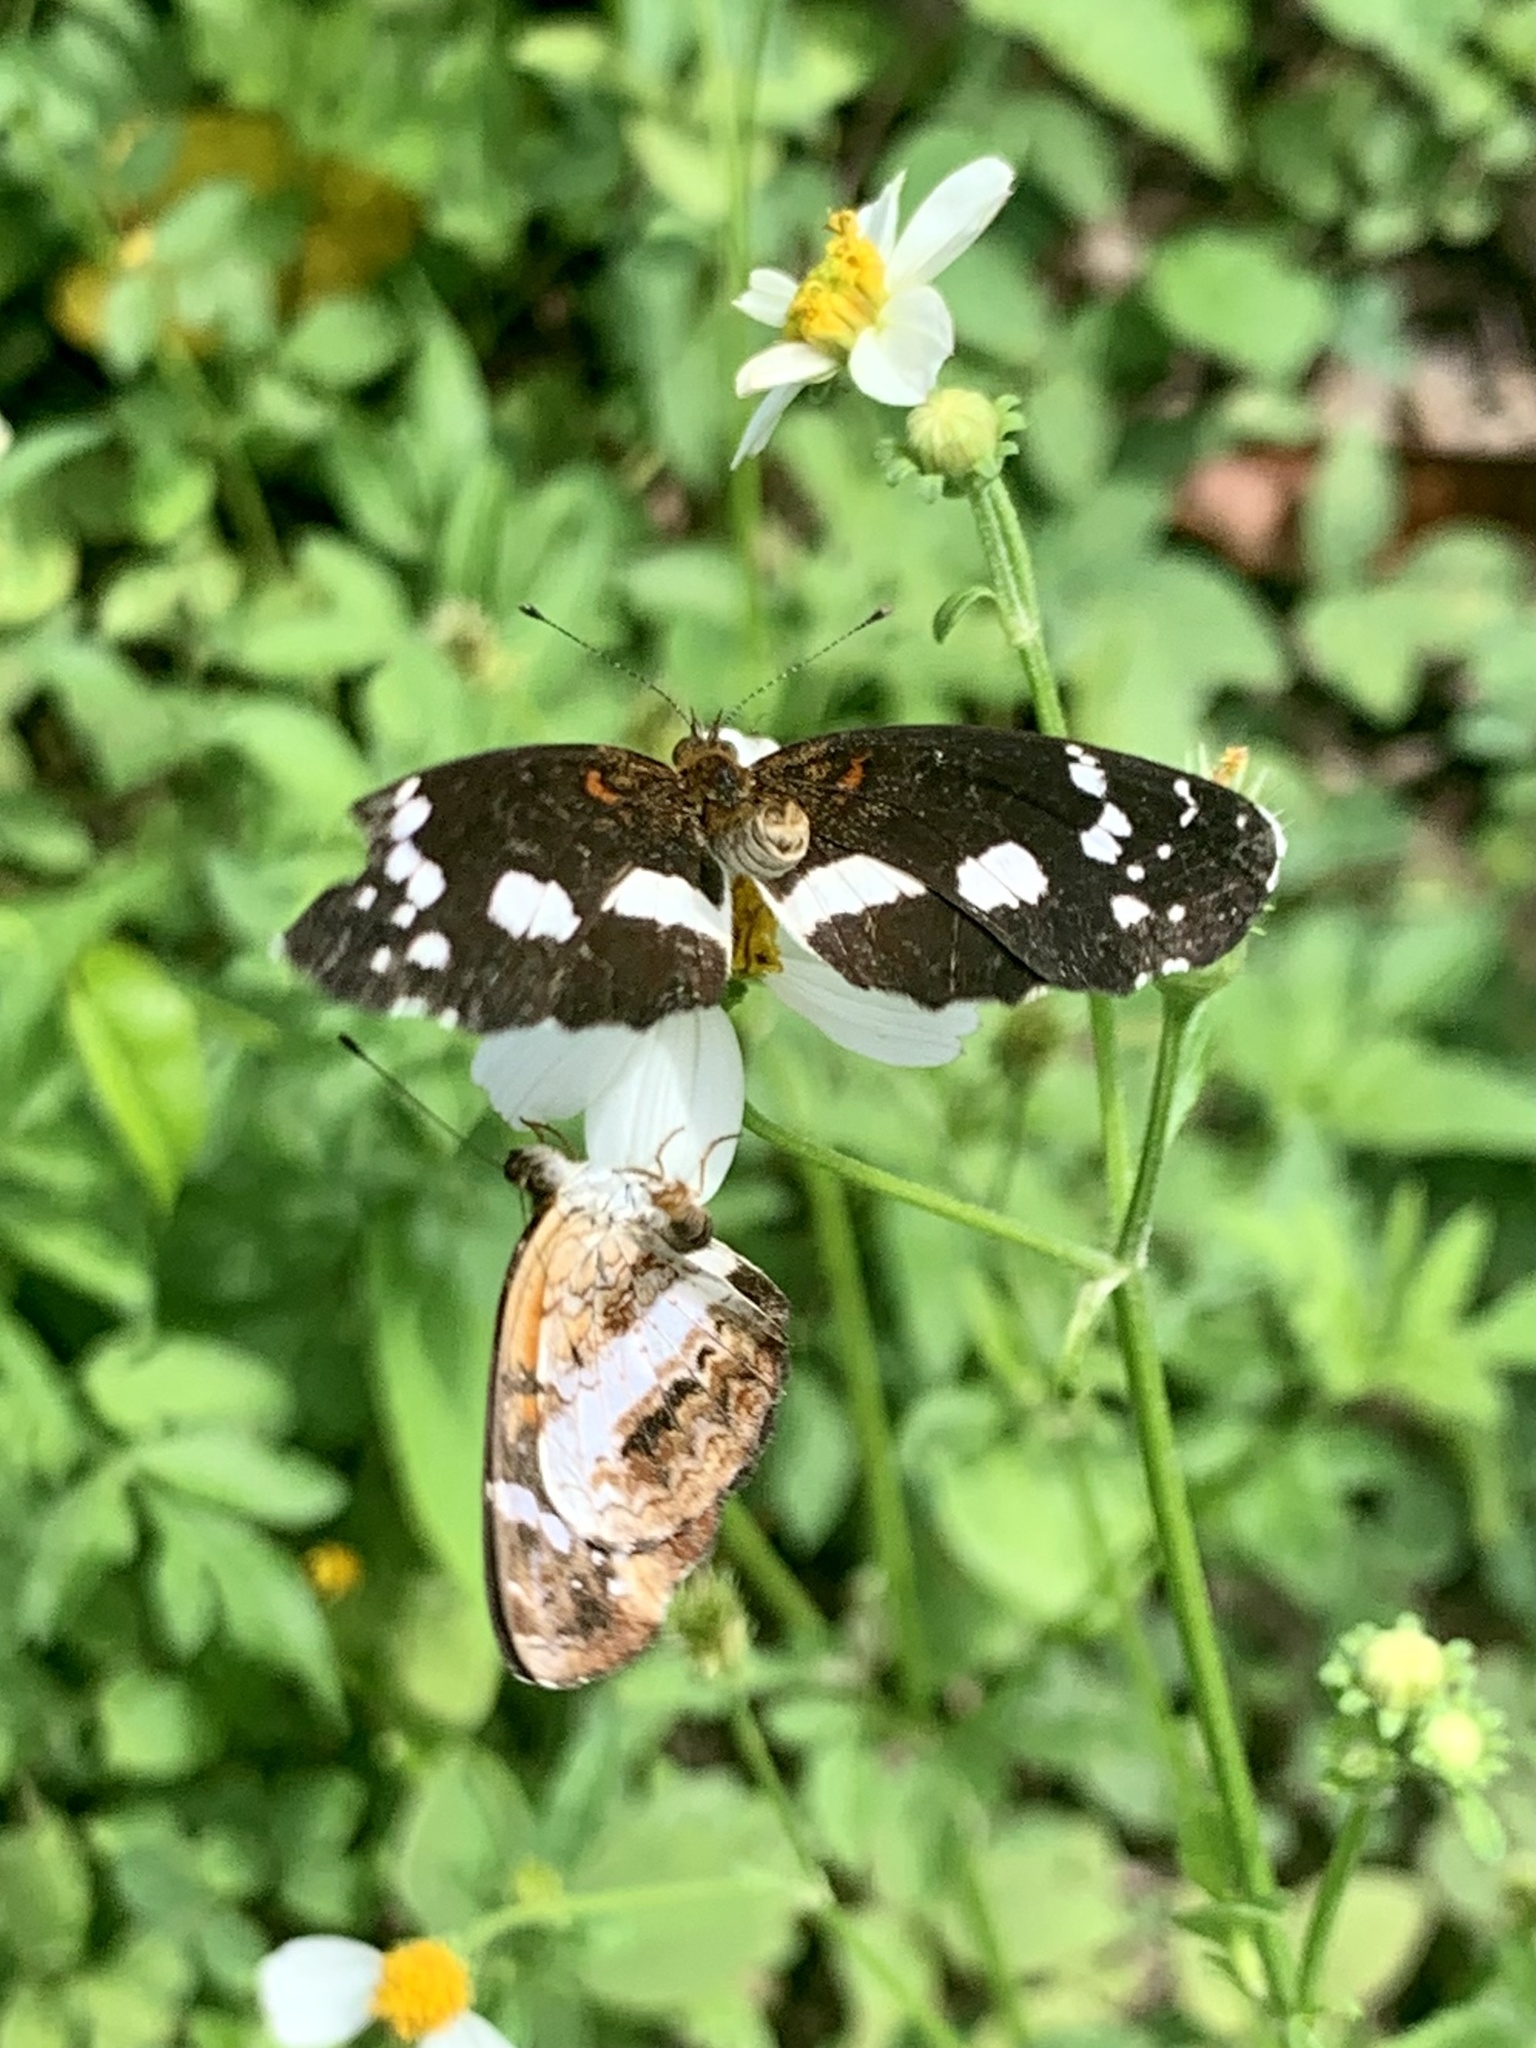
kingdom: Animalia
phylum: Arthropoda
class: Insecta
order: Lepidoptera
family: Nymphalidae
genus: Castilia
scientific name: Castilia griseobasalis
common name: Gray-based crescent
